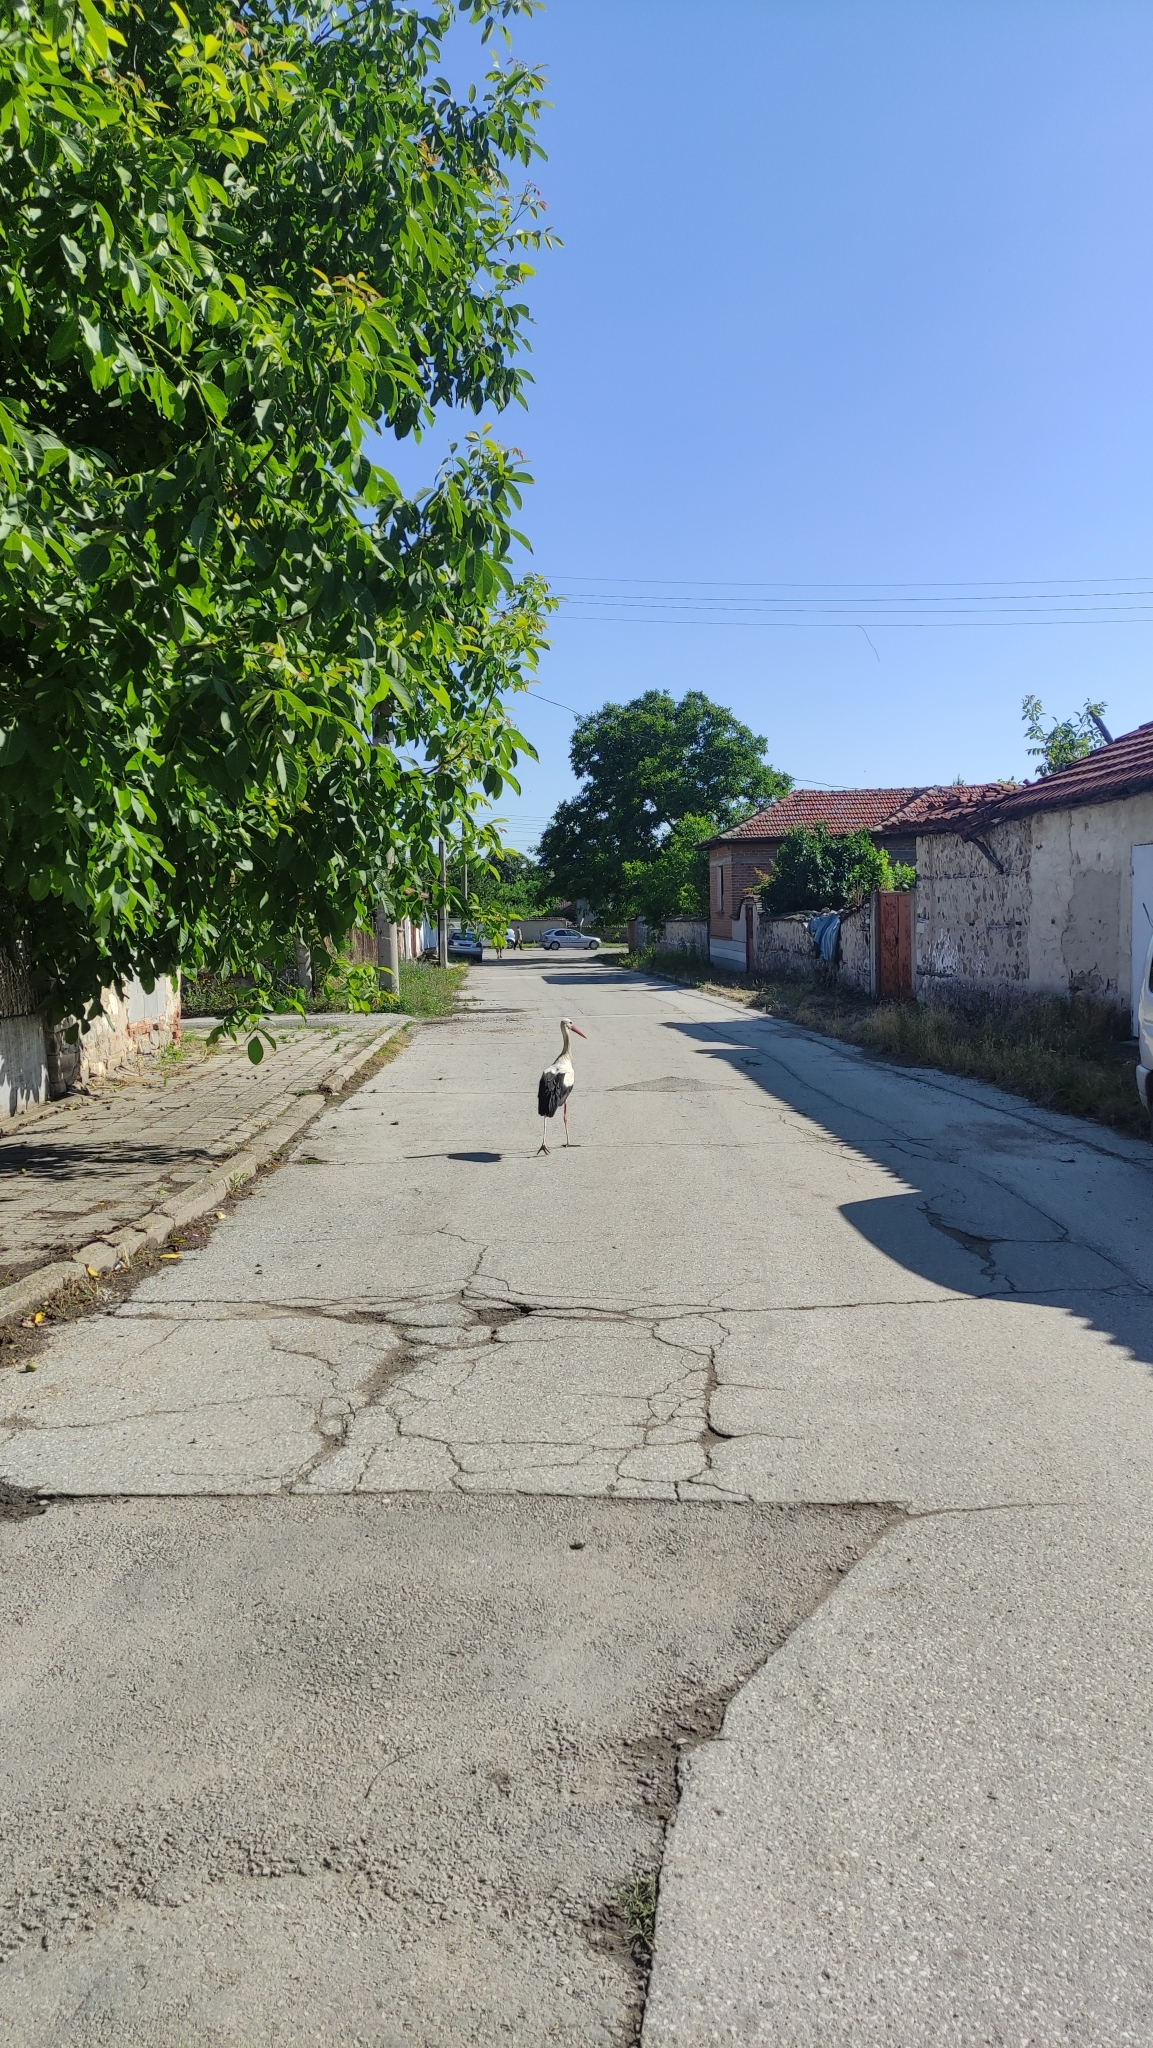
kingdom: Animalia
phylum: Chordata
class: Aves
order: Ciconiiformes
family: Ciconiidae
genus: Ciconia
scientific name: Ciconia ciconia
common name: White stork
